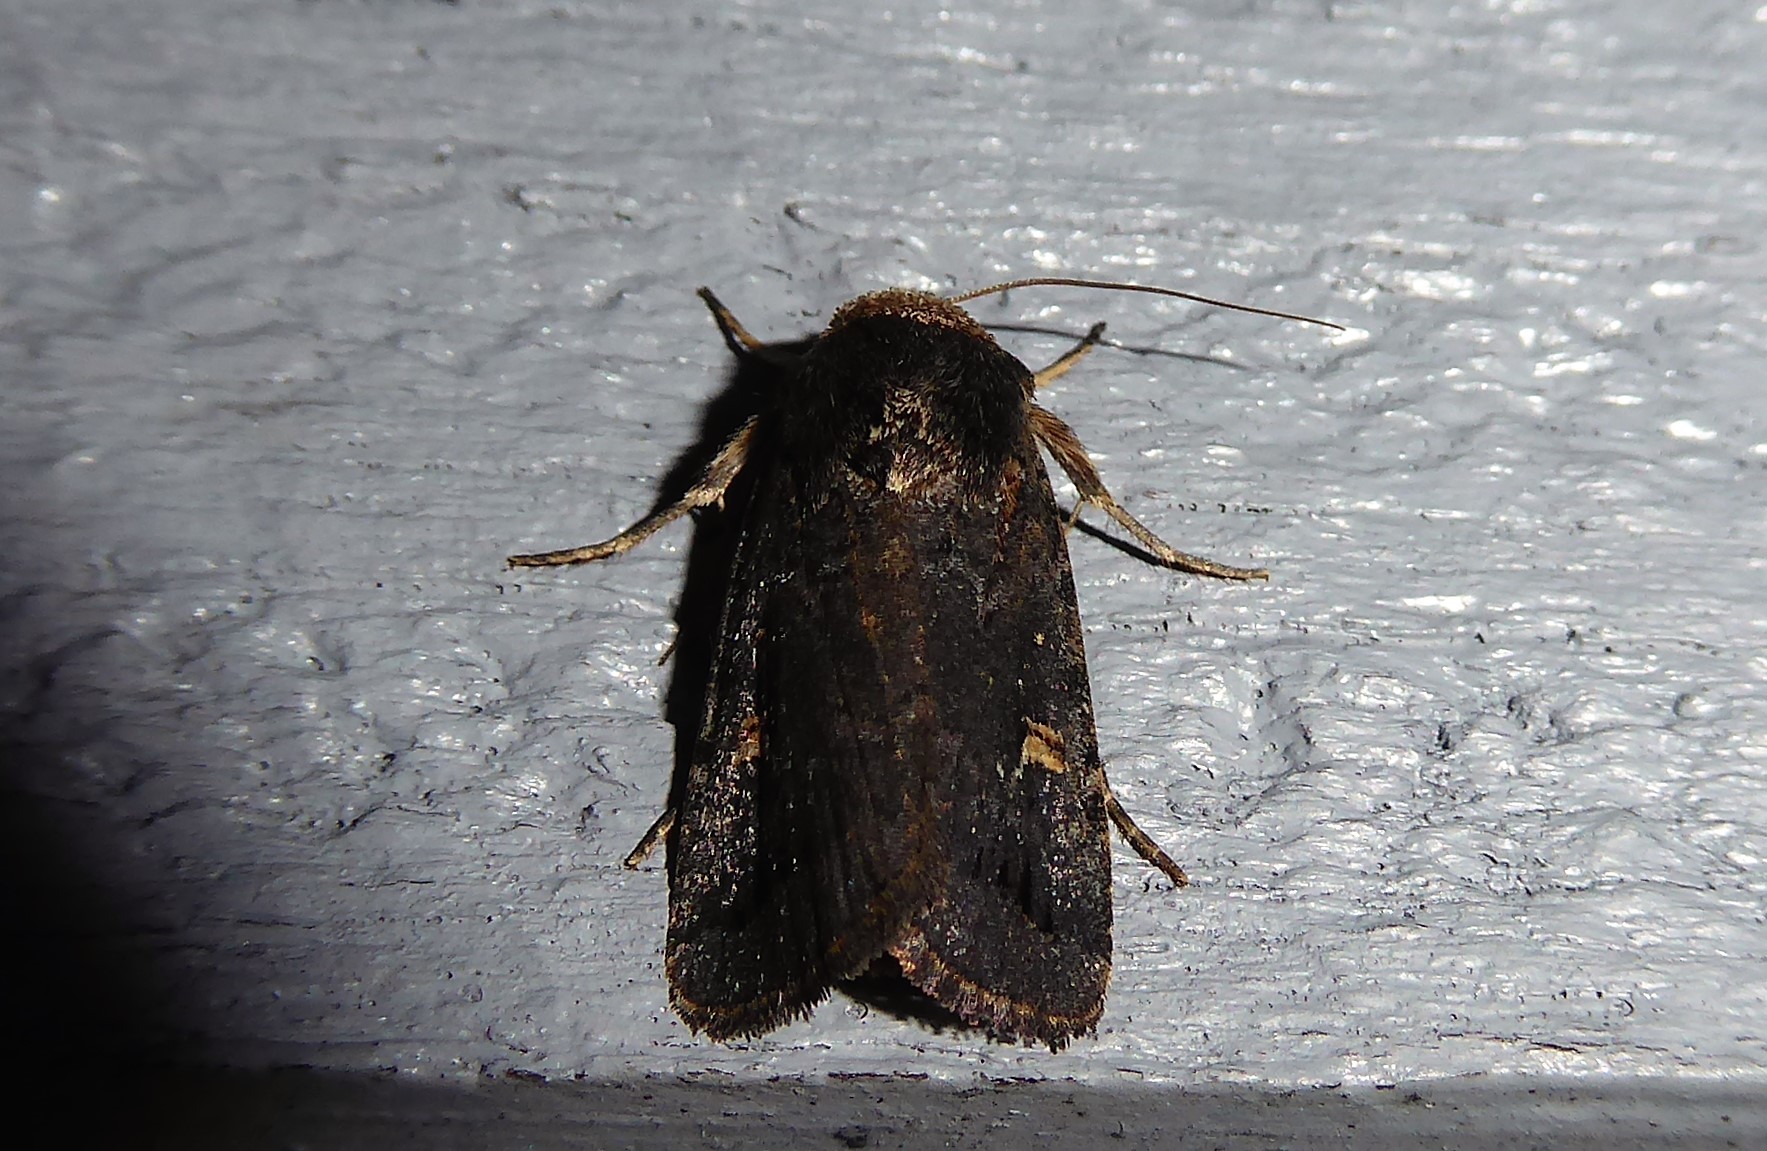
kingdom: Animalia
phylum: Arthropoda
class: Insecta
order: Lepidoptera
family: Noctuidae
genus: Proteuxoa
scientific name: Proteuxoa tetronycha
